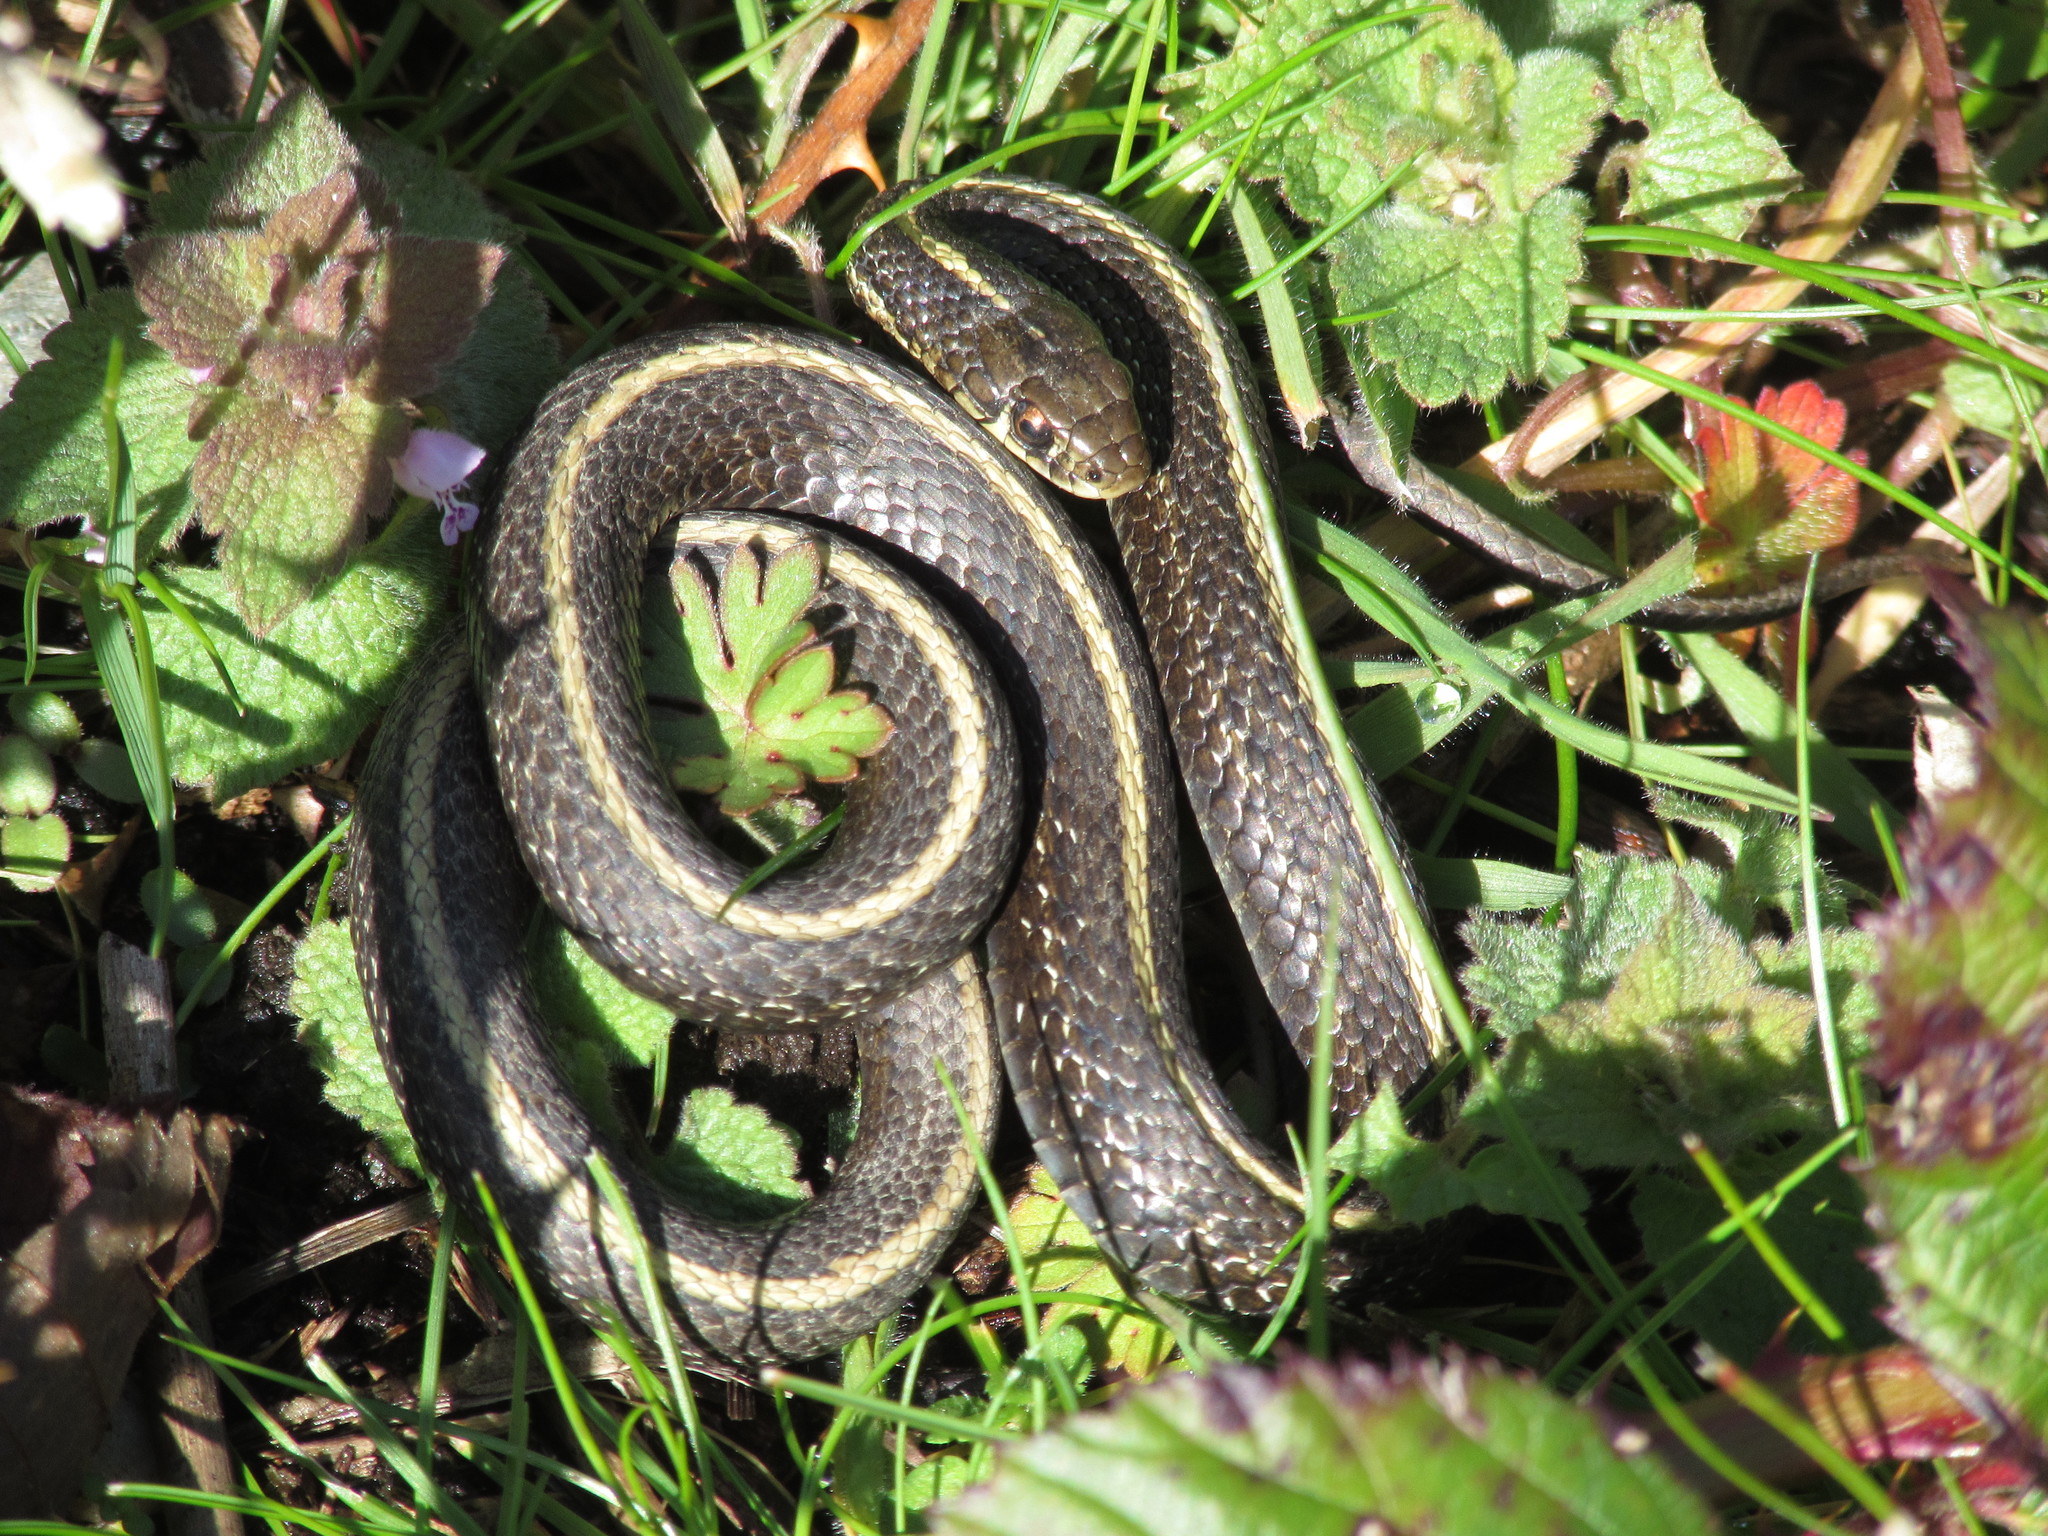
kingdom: Animalia
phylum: Chordata
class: Squamata
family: Colubridae
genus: Thamnophis
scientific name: Thamnophis ordinoides
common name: Northwestern garter snake
